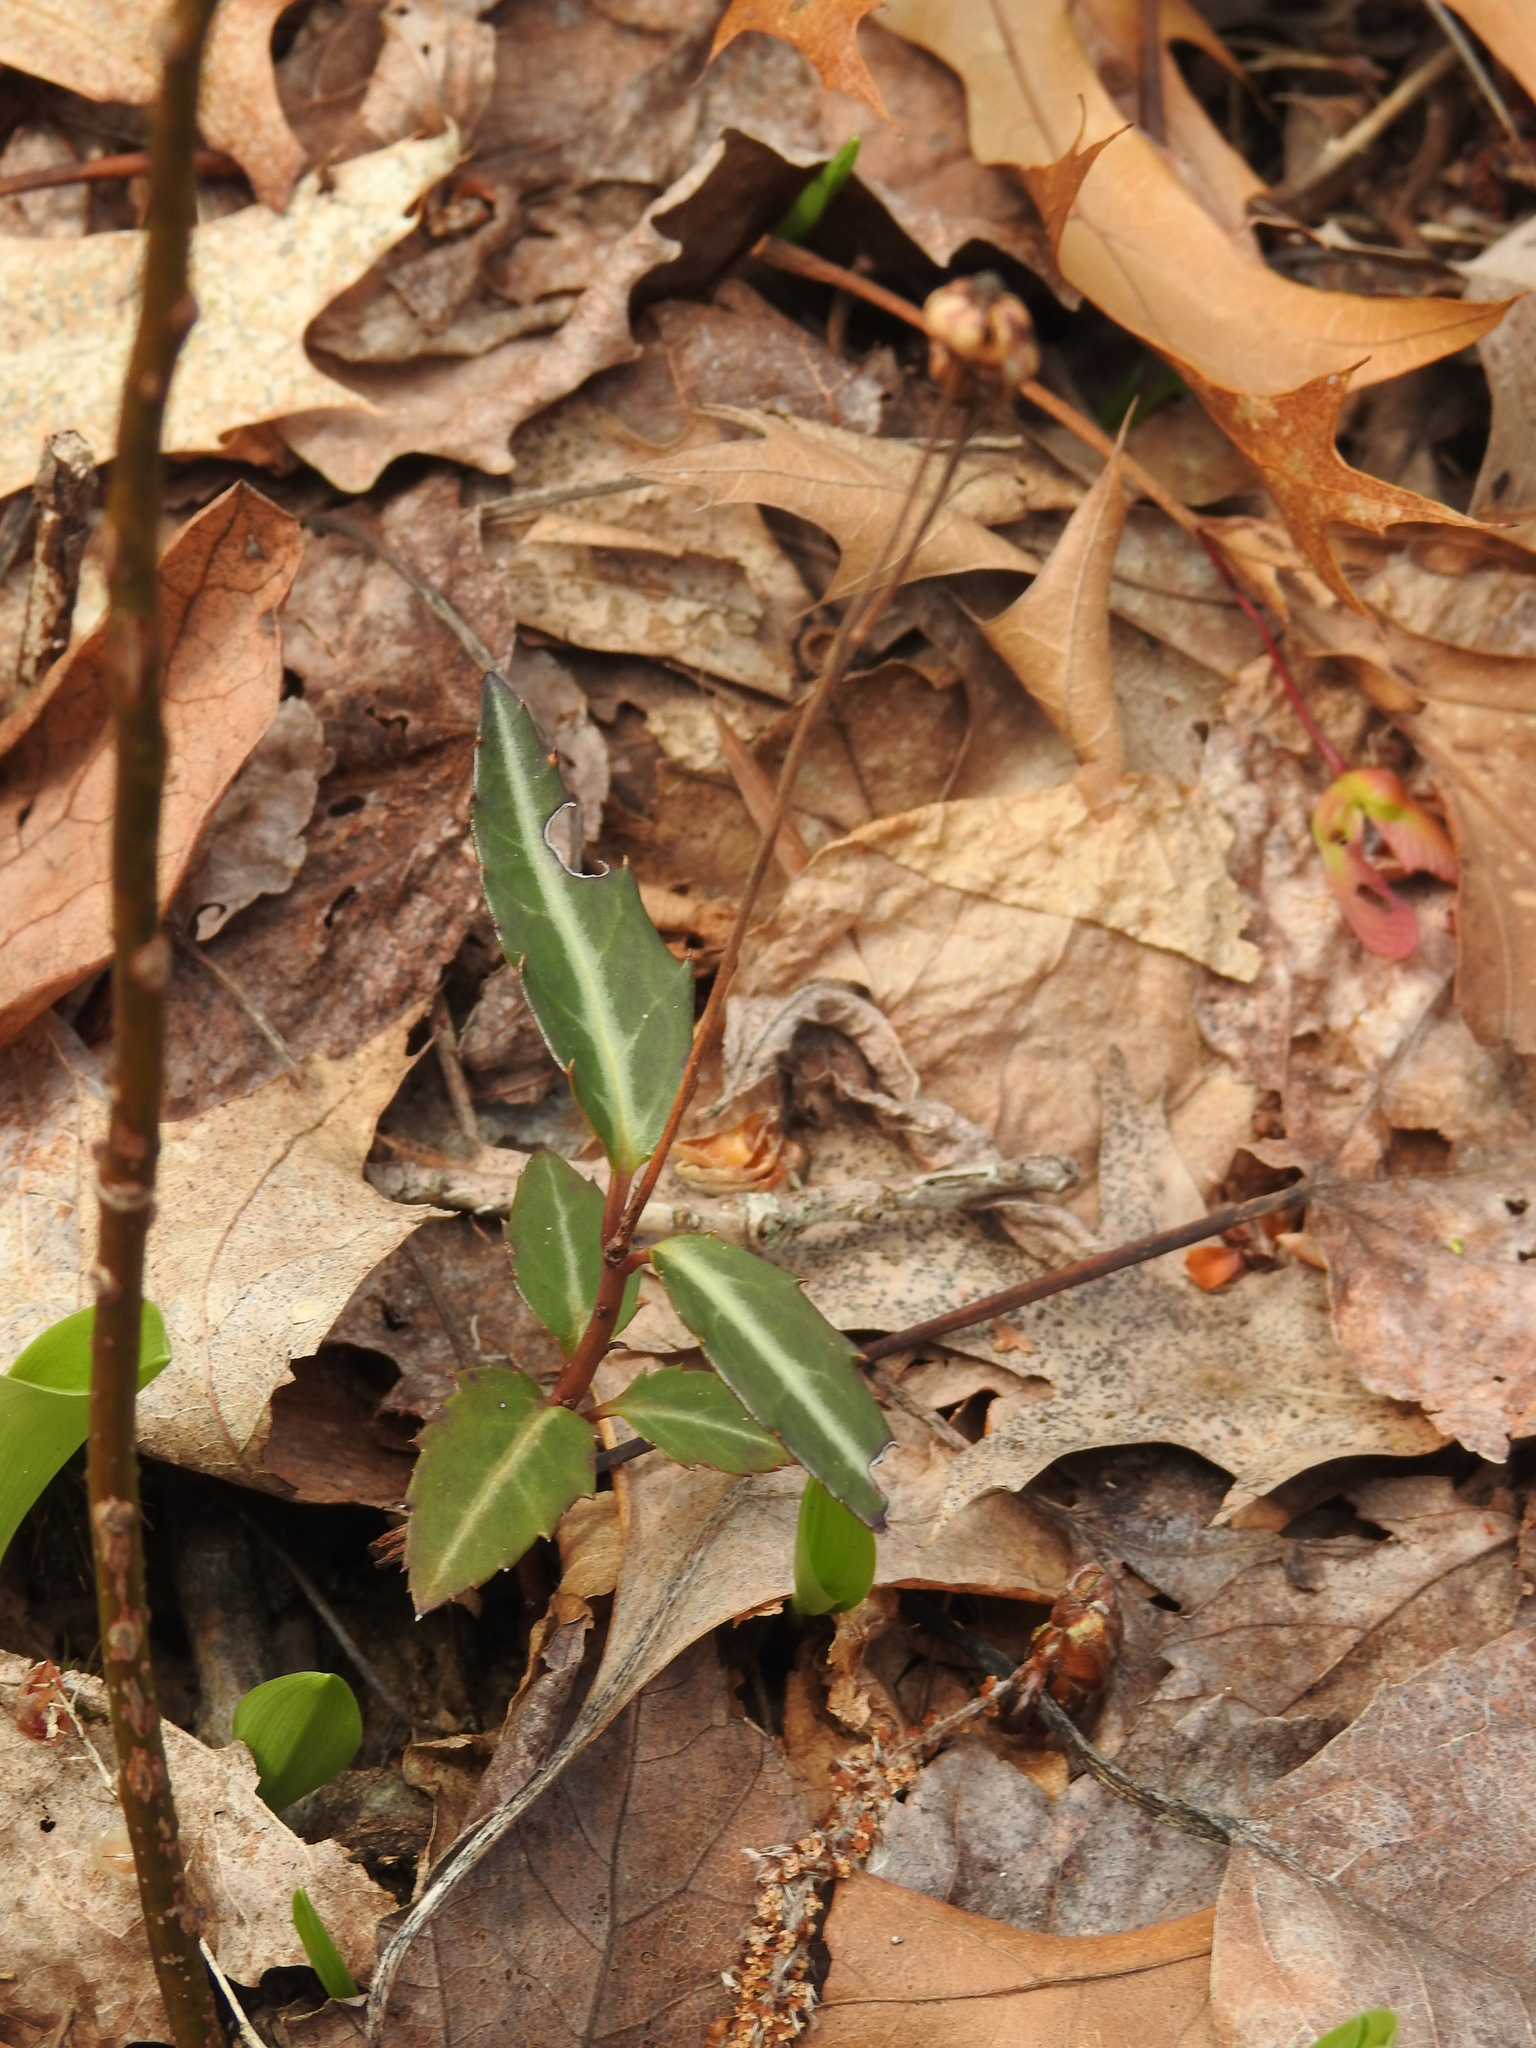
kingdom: Plantae
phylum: Tracheophyta
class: Magnoliopsida
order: Ericales
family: Ericaceae
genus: Chimaphila
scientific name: Chimaphila maculata
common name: Spotted pipsissewa
